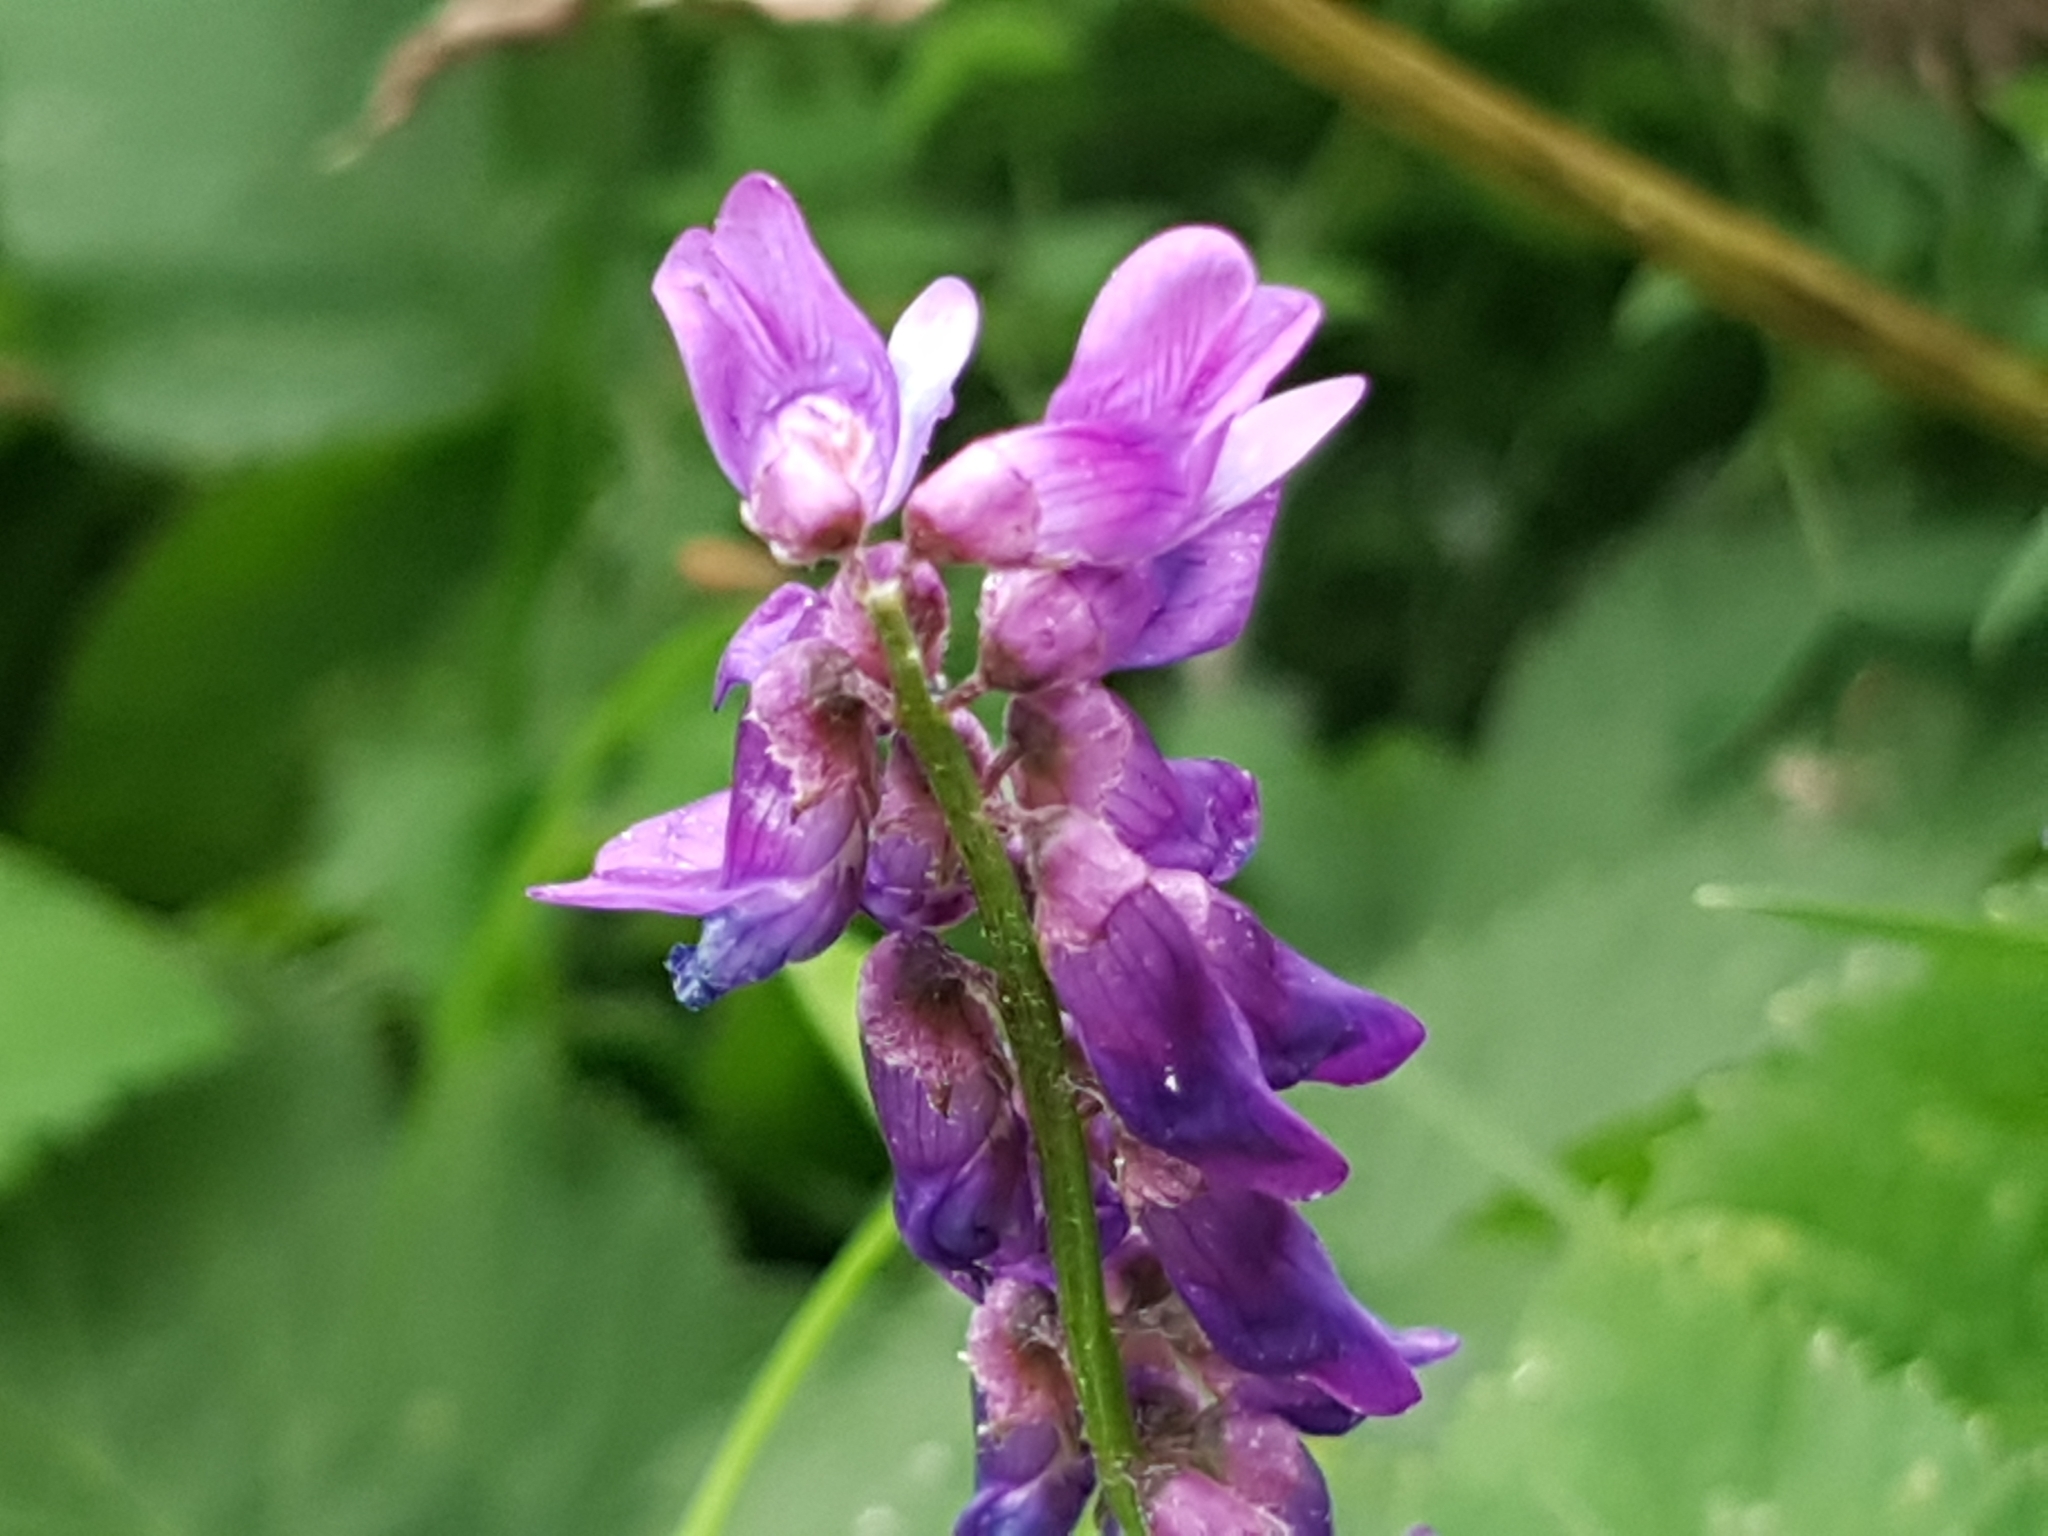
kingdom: Plantae
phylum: Tracheophyta
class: Magnoliopsida
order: Fabales
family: Fabaceae
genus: Vicia
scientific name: Vicia cracca
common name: Bird vetch
